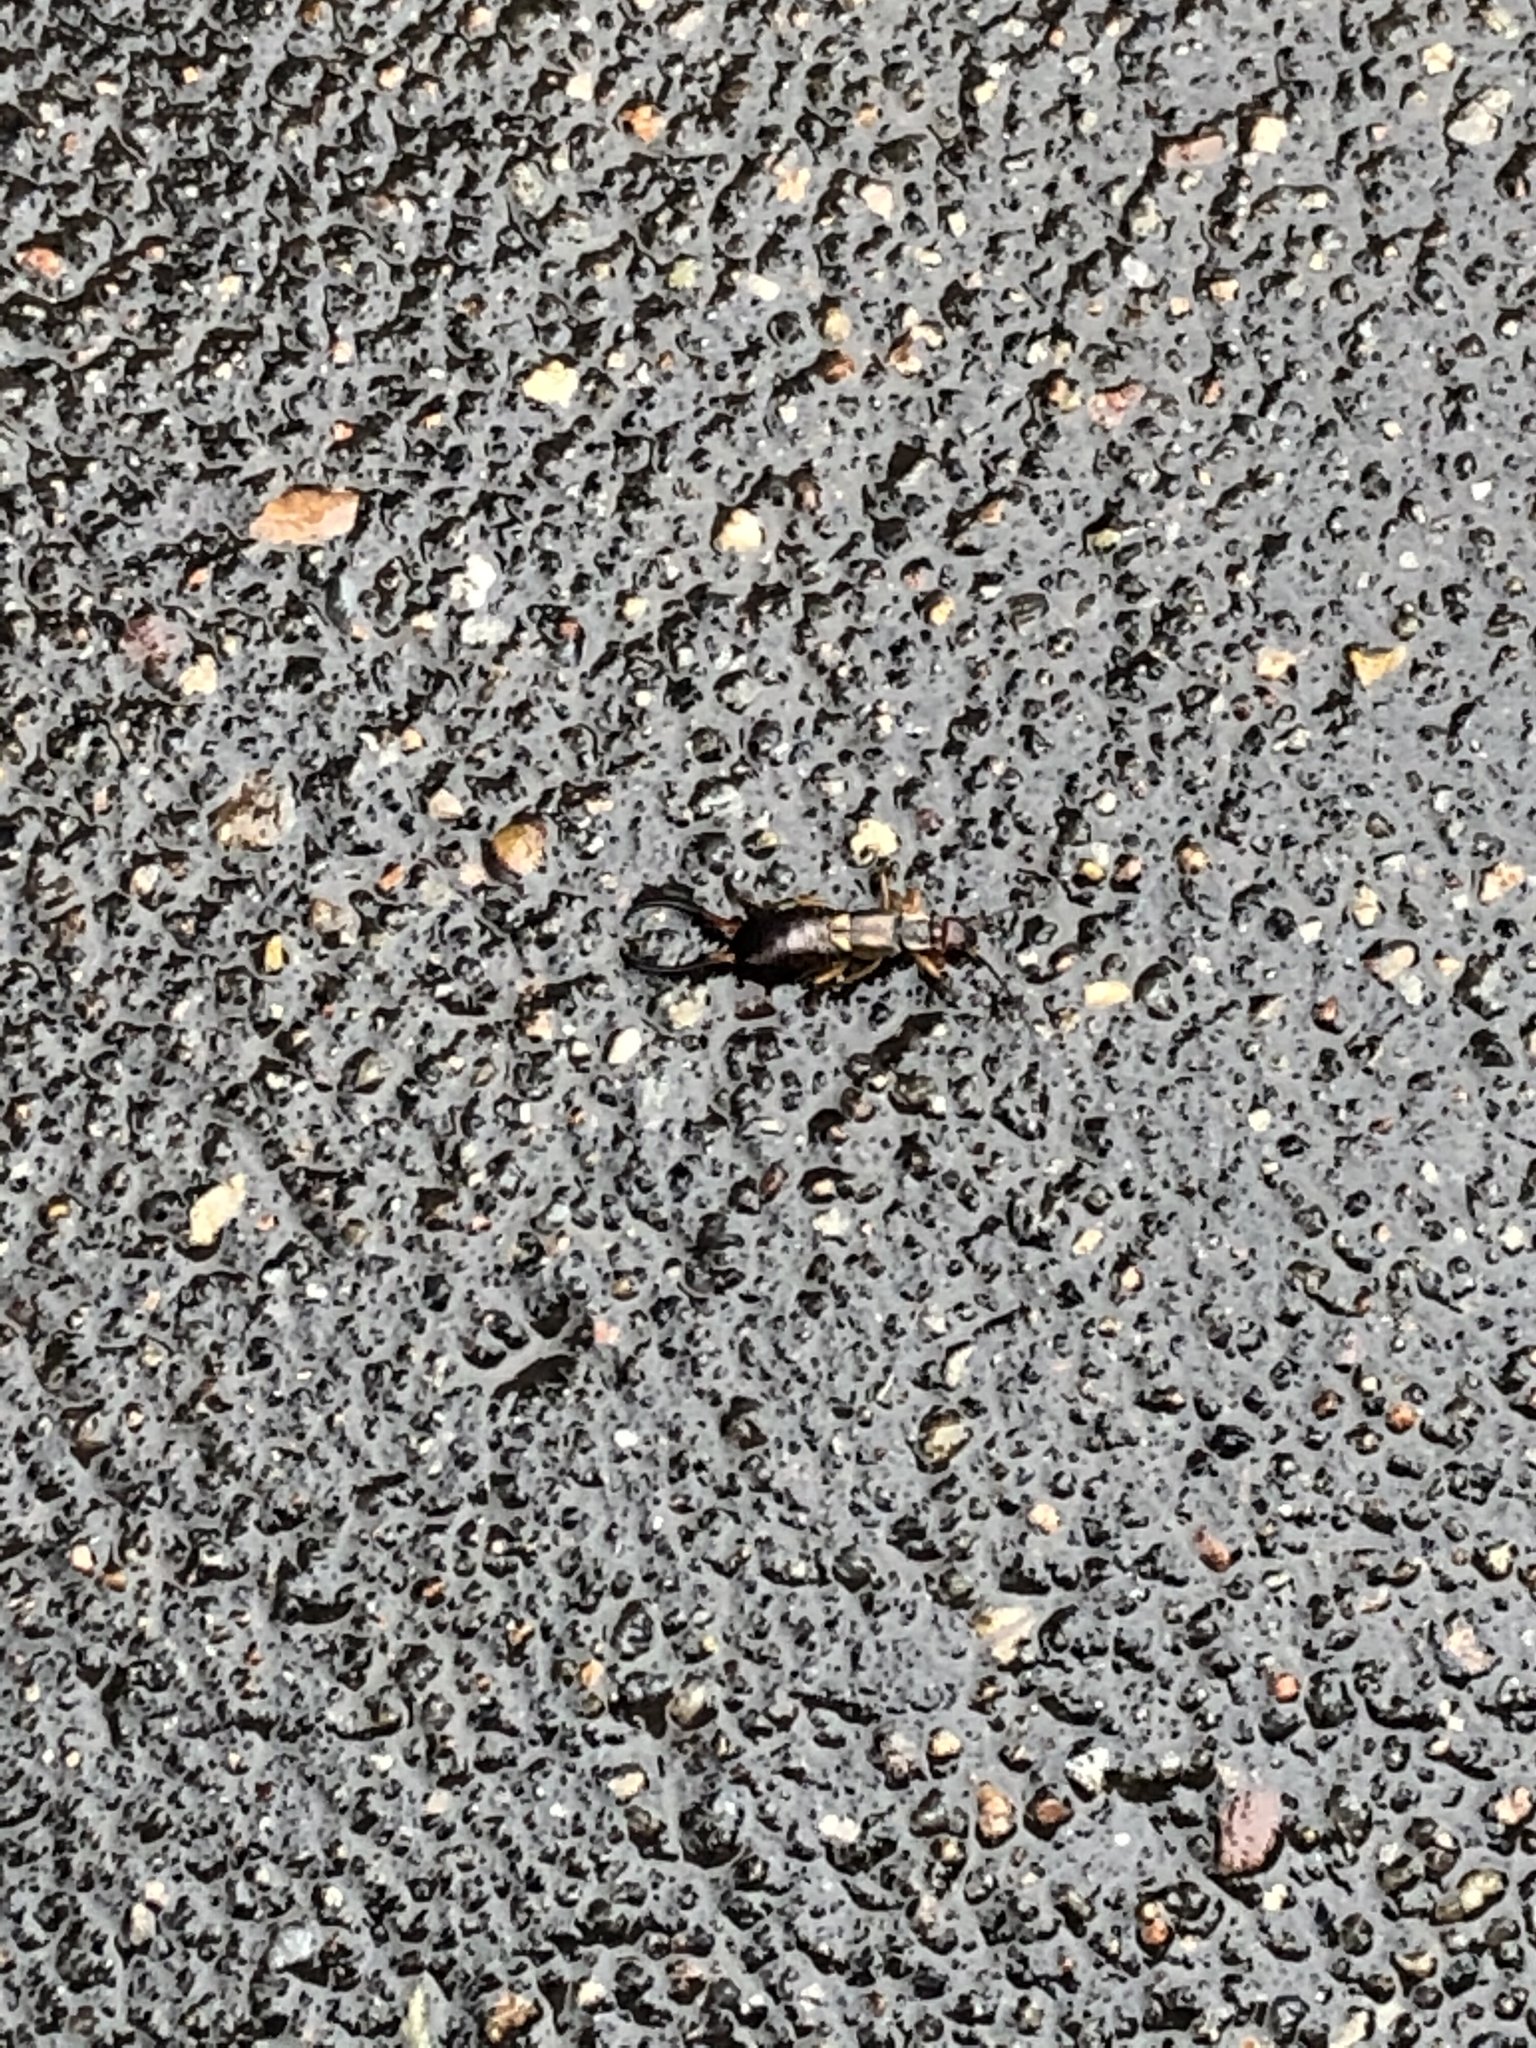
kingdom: Animalia
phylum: Arthropoda
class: Insecta
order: Dermaptera
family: Forficulidae
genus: Forficula
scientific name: Forficula
